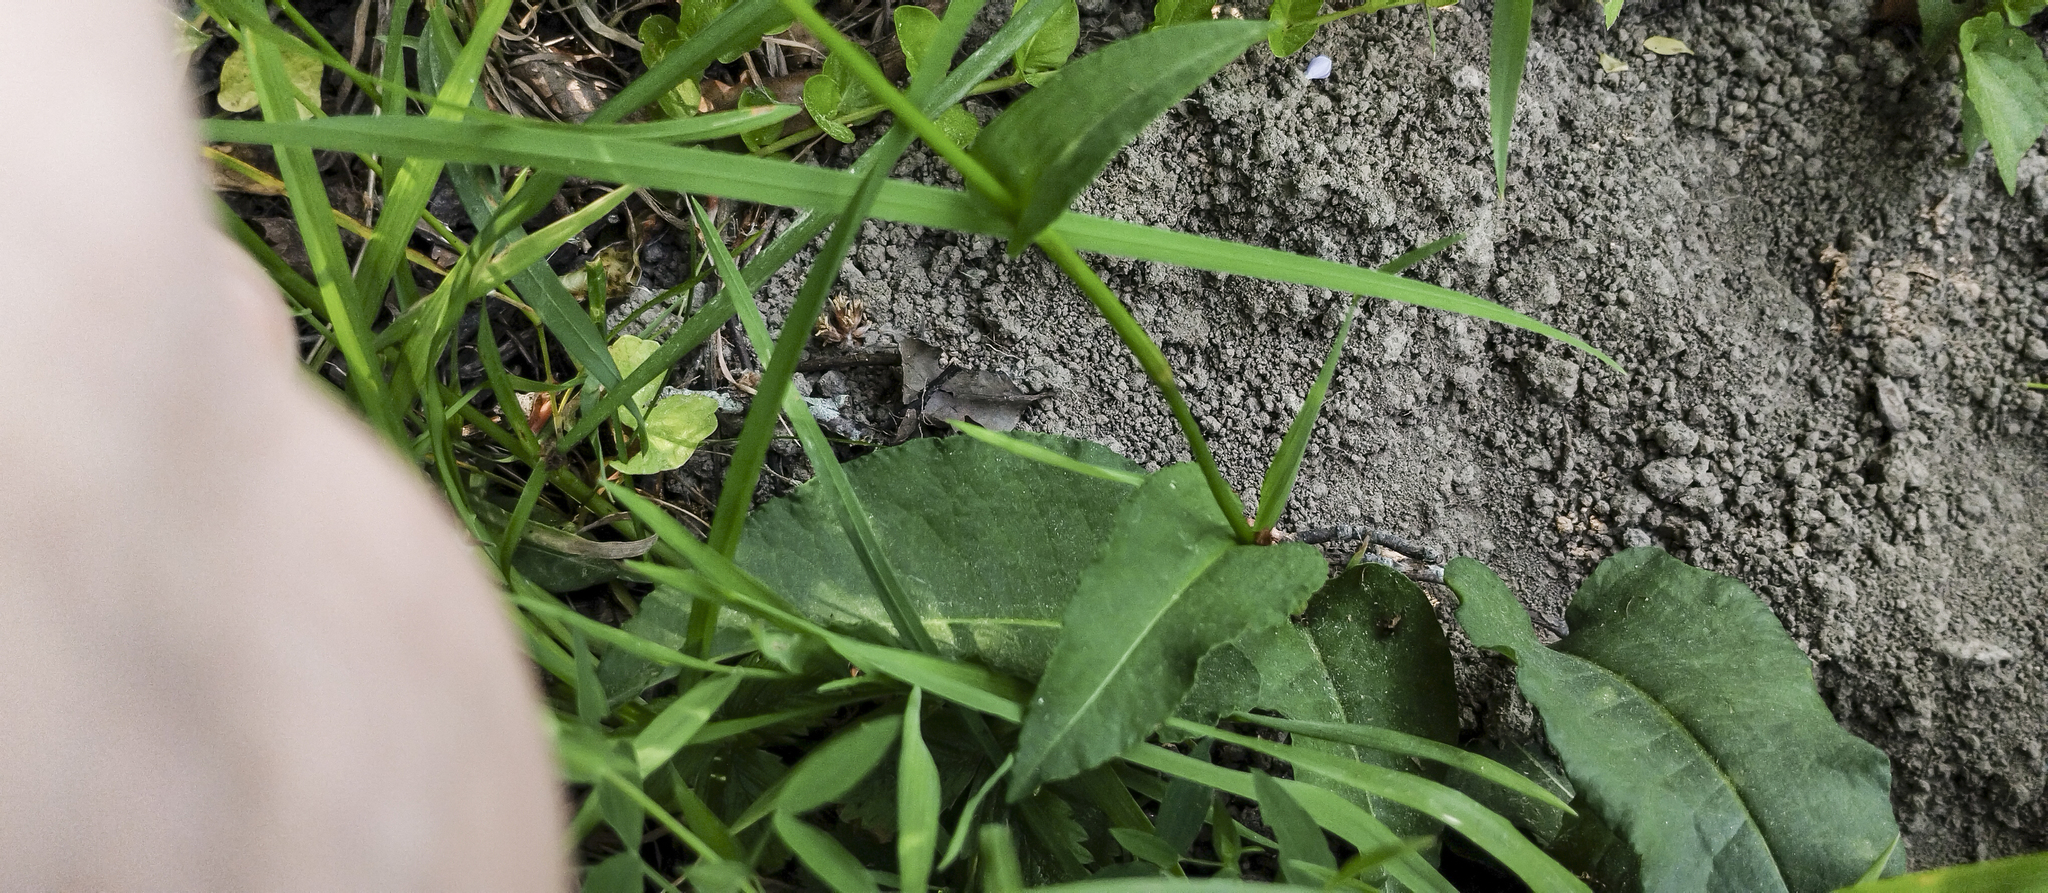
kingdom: Plantae
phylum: Tracheophyta
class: Magnoliopsida
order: Caryophyllales
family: Polygonaceae
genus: Bistorta
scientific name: Bistorta officinalis
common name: Common bistort
